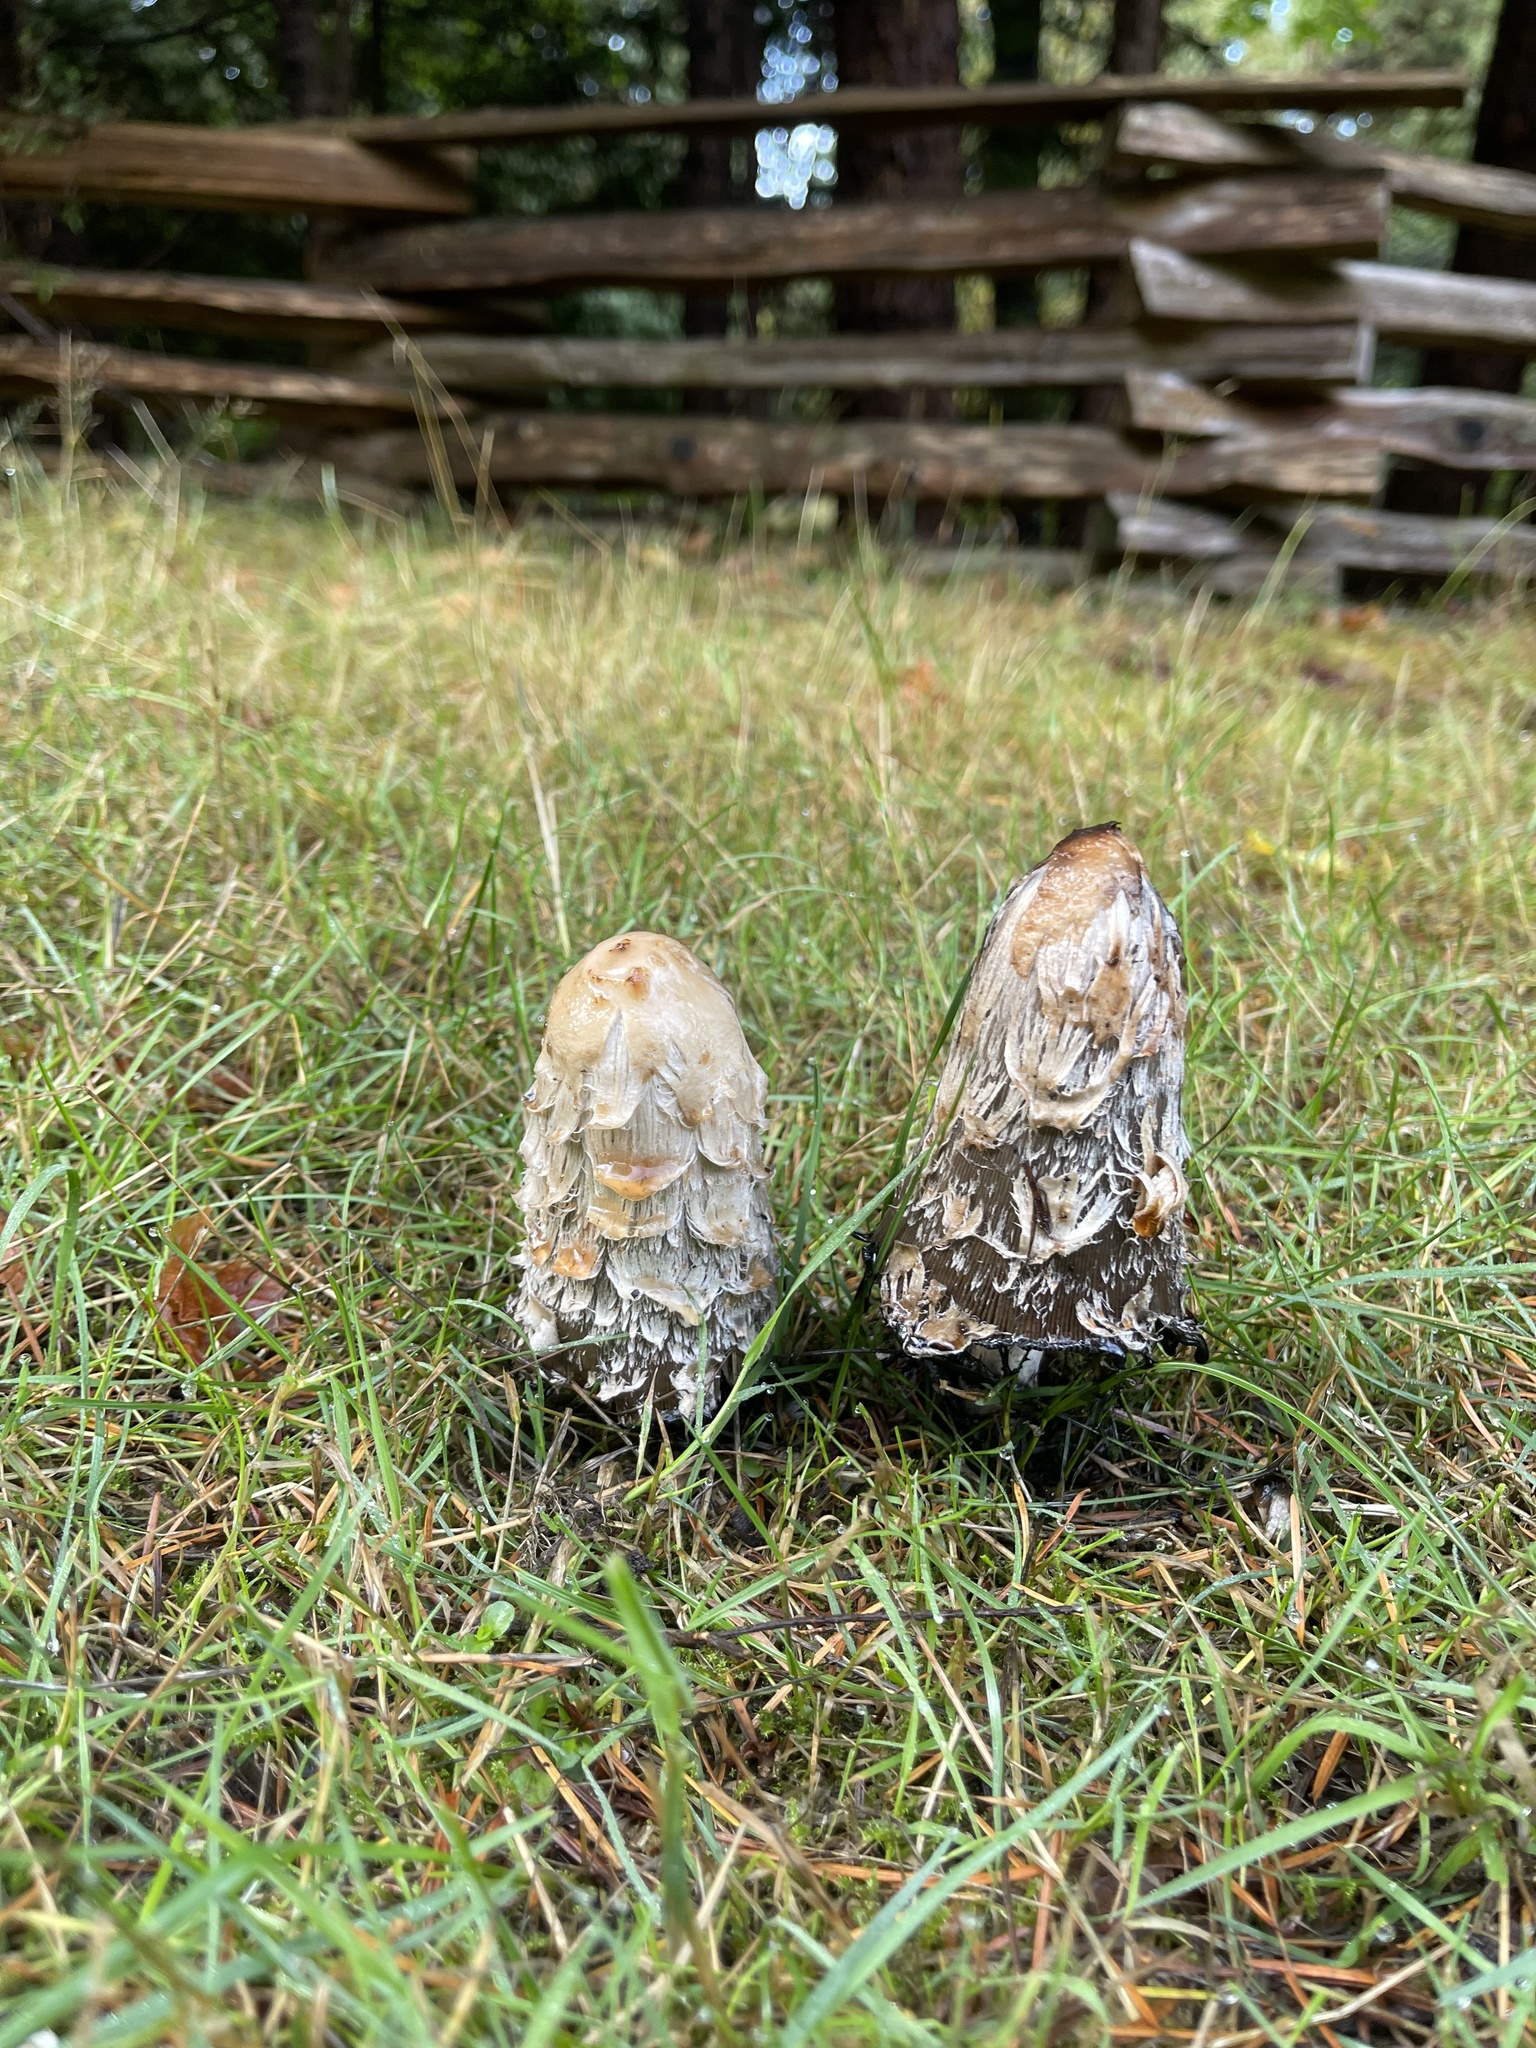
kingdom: Fungi
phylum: Basidiomycota
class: Agaricomycetes
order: Agaricales
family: Agaricaceae
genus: Coprinus
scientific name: Coprinus comatus
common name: Lawyer's wig
